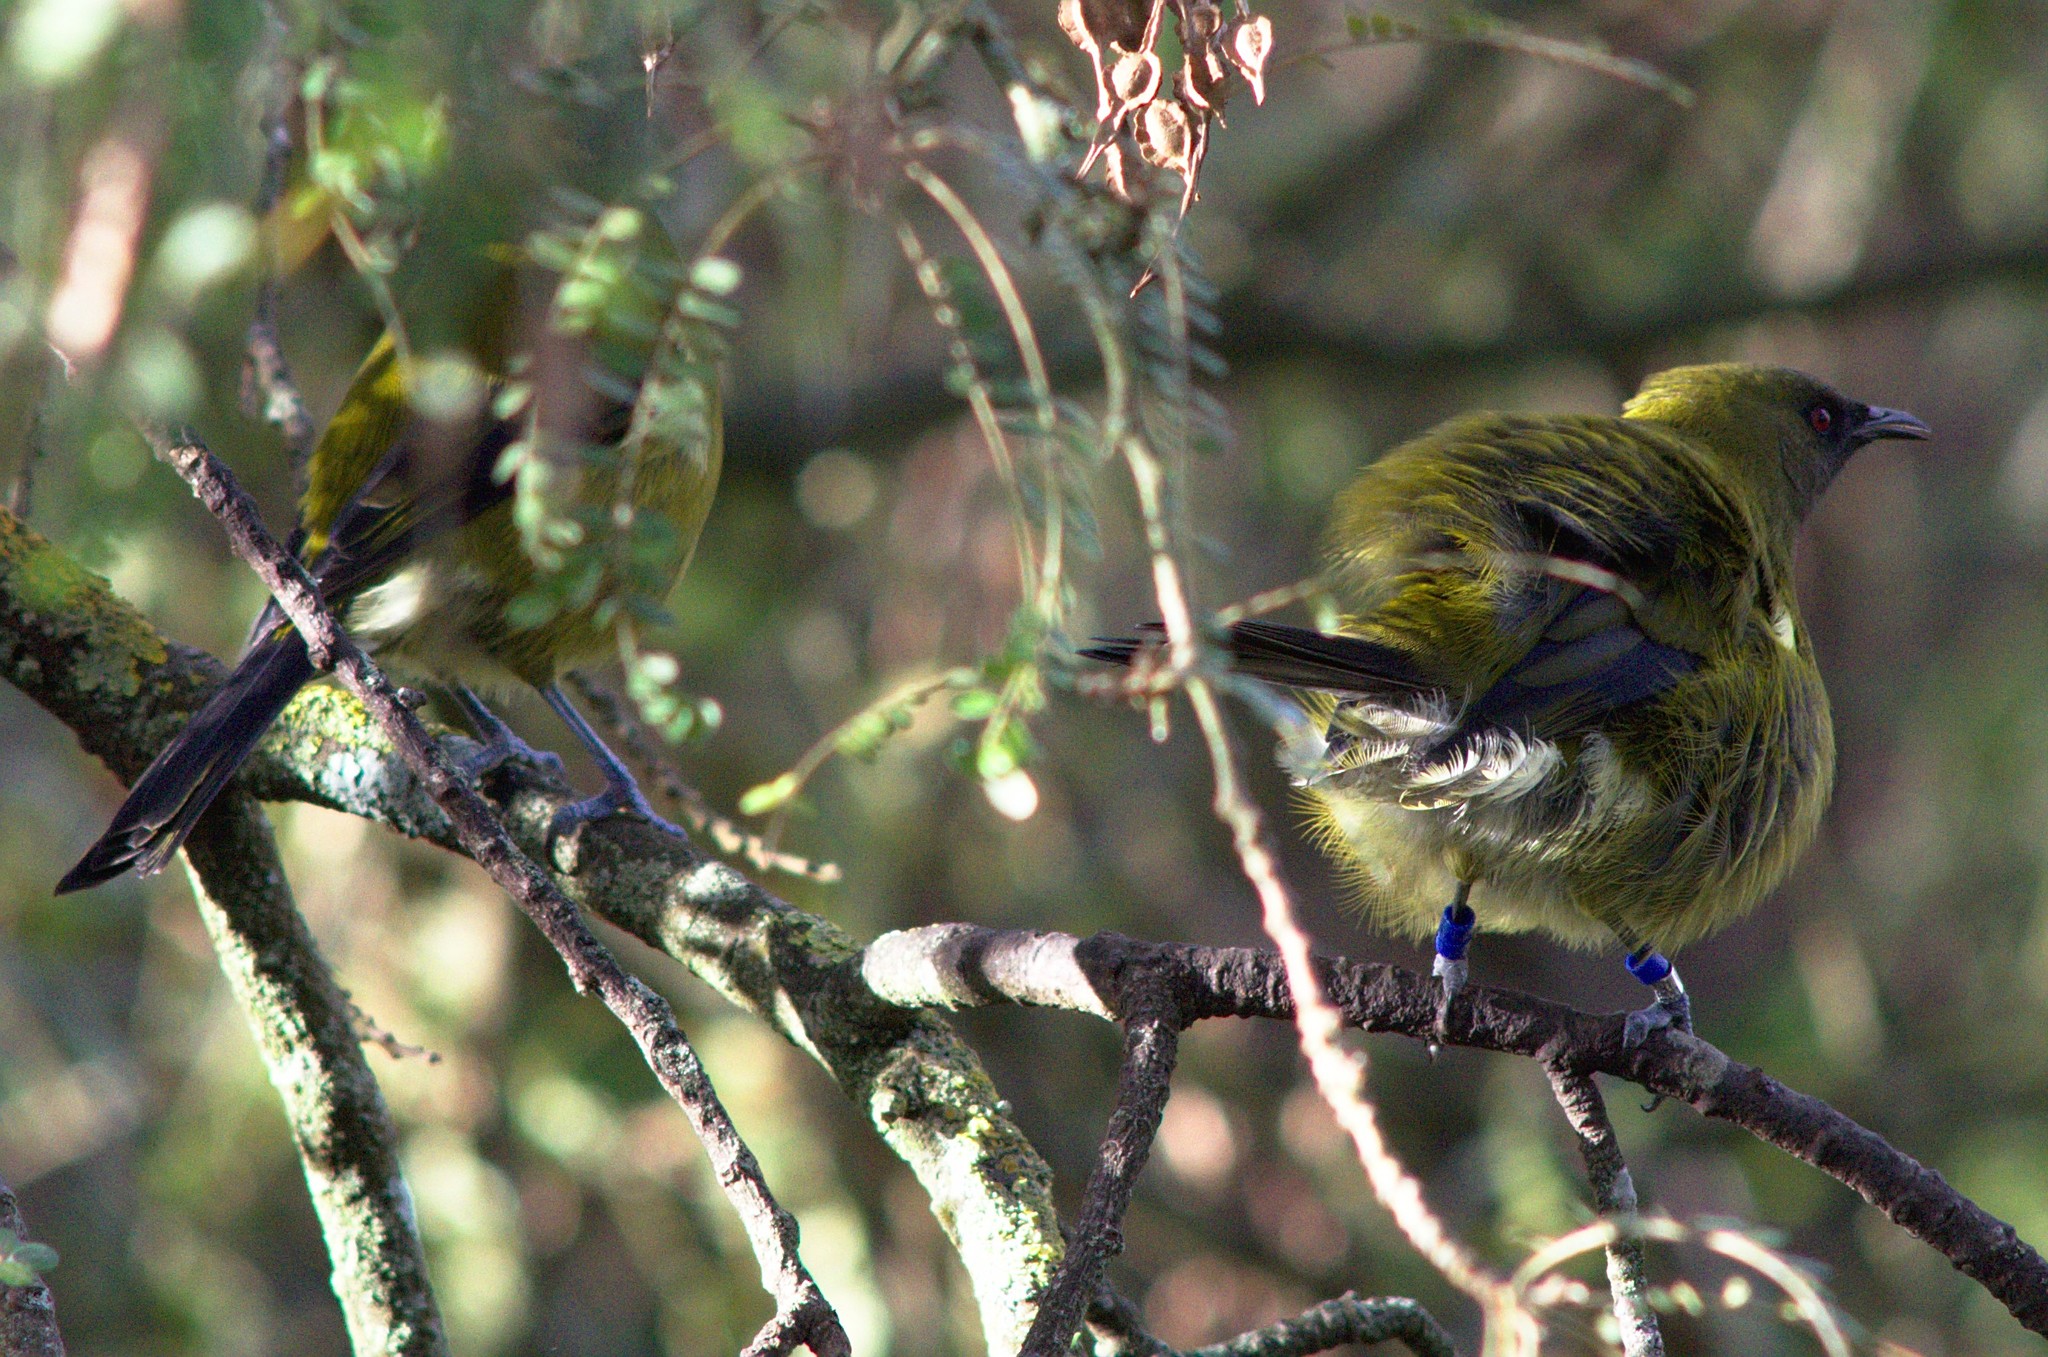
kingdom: Animalia
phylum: Chordata
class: Aves
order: Passeriformes
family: Meliphagidae
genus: Anthornis
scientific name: Anthornis melanura
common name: New zealand bellbird
